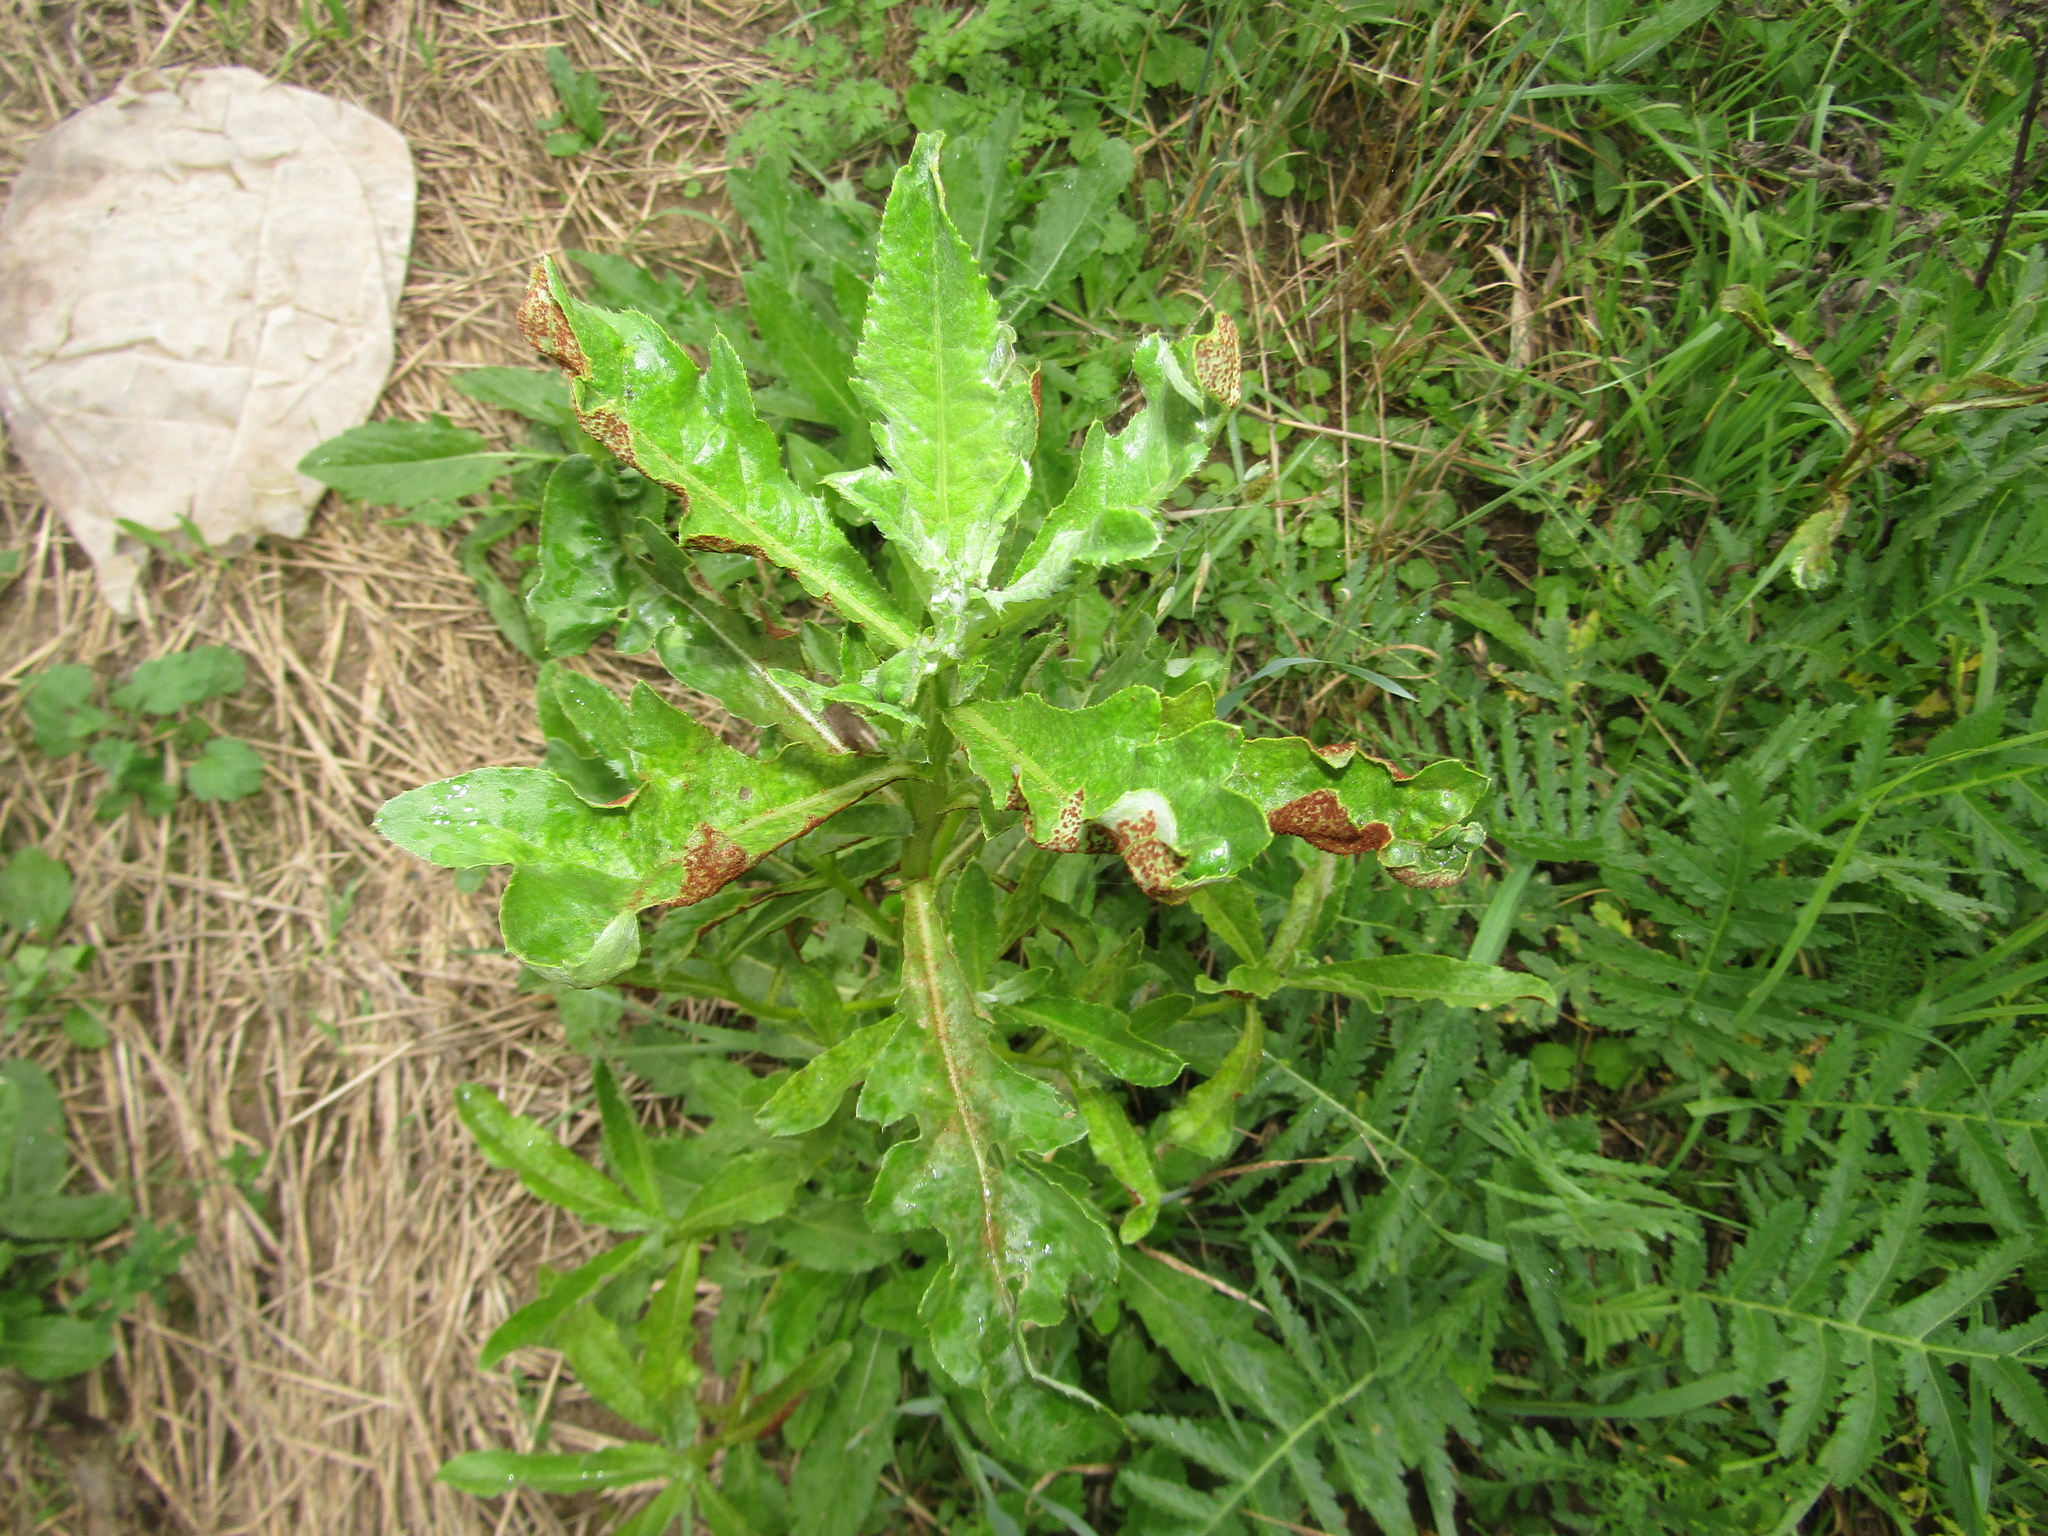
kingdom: Plantae
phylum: Tracheophyta
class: Magnoliopsida
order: Asterales
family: Asteraceae
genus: Cirsium
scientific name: Cirsium arvense
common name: Creeping thistle
